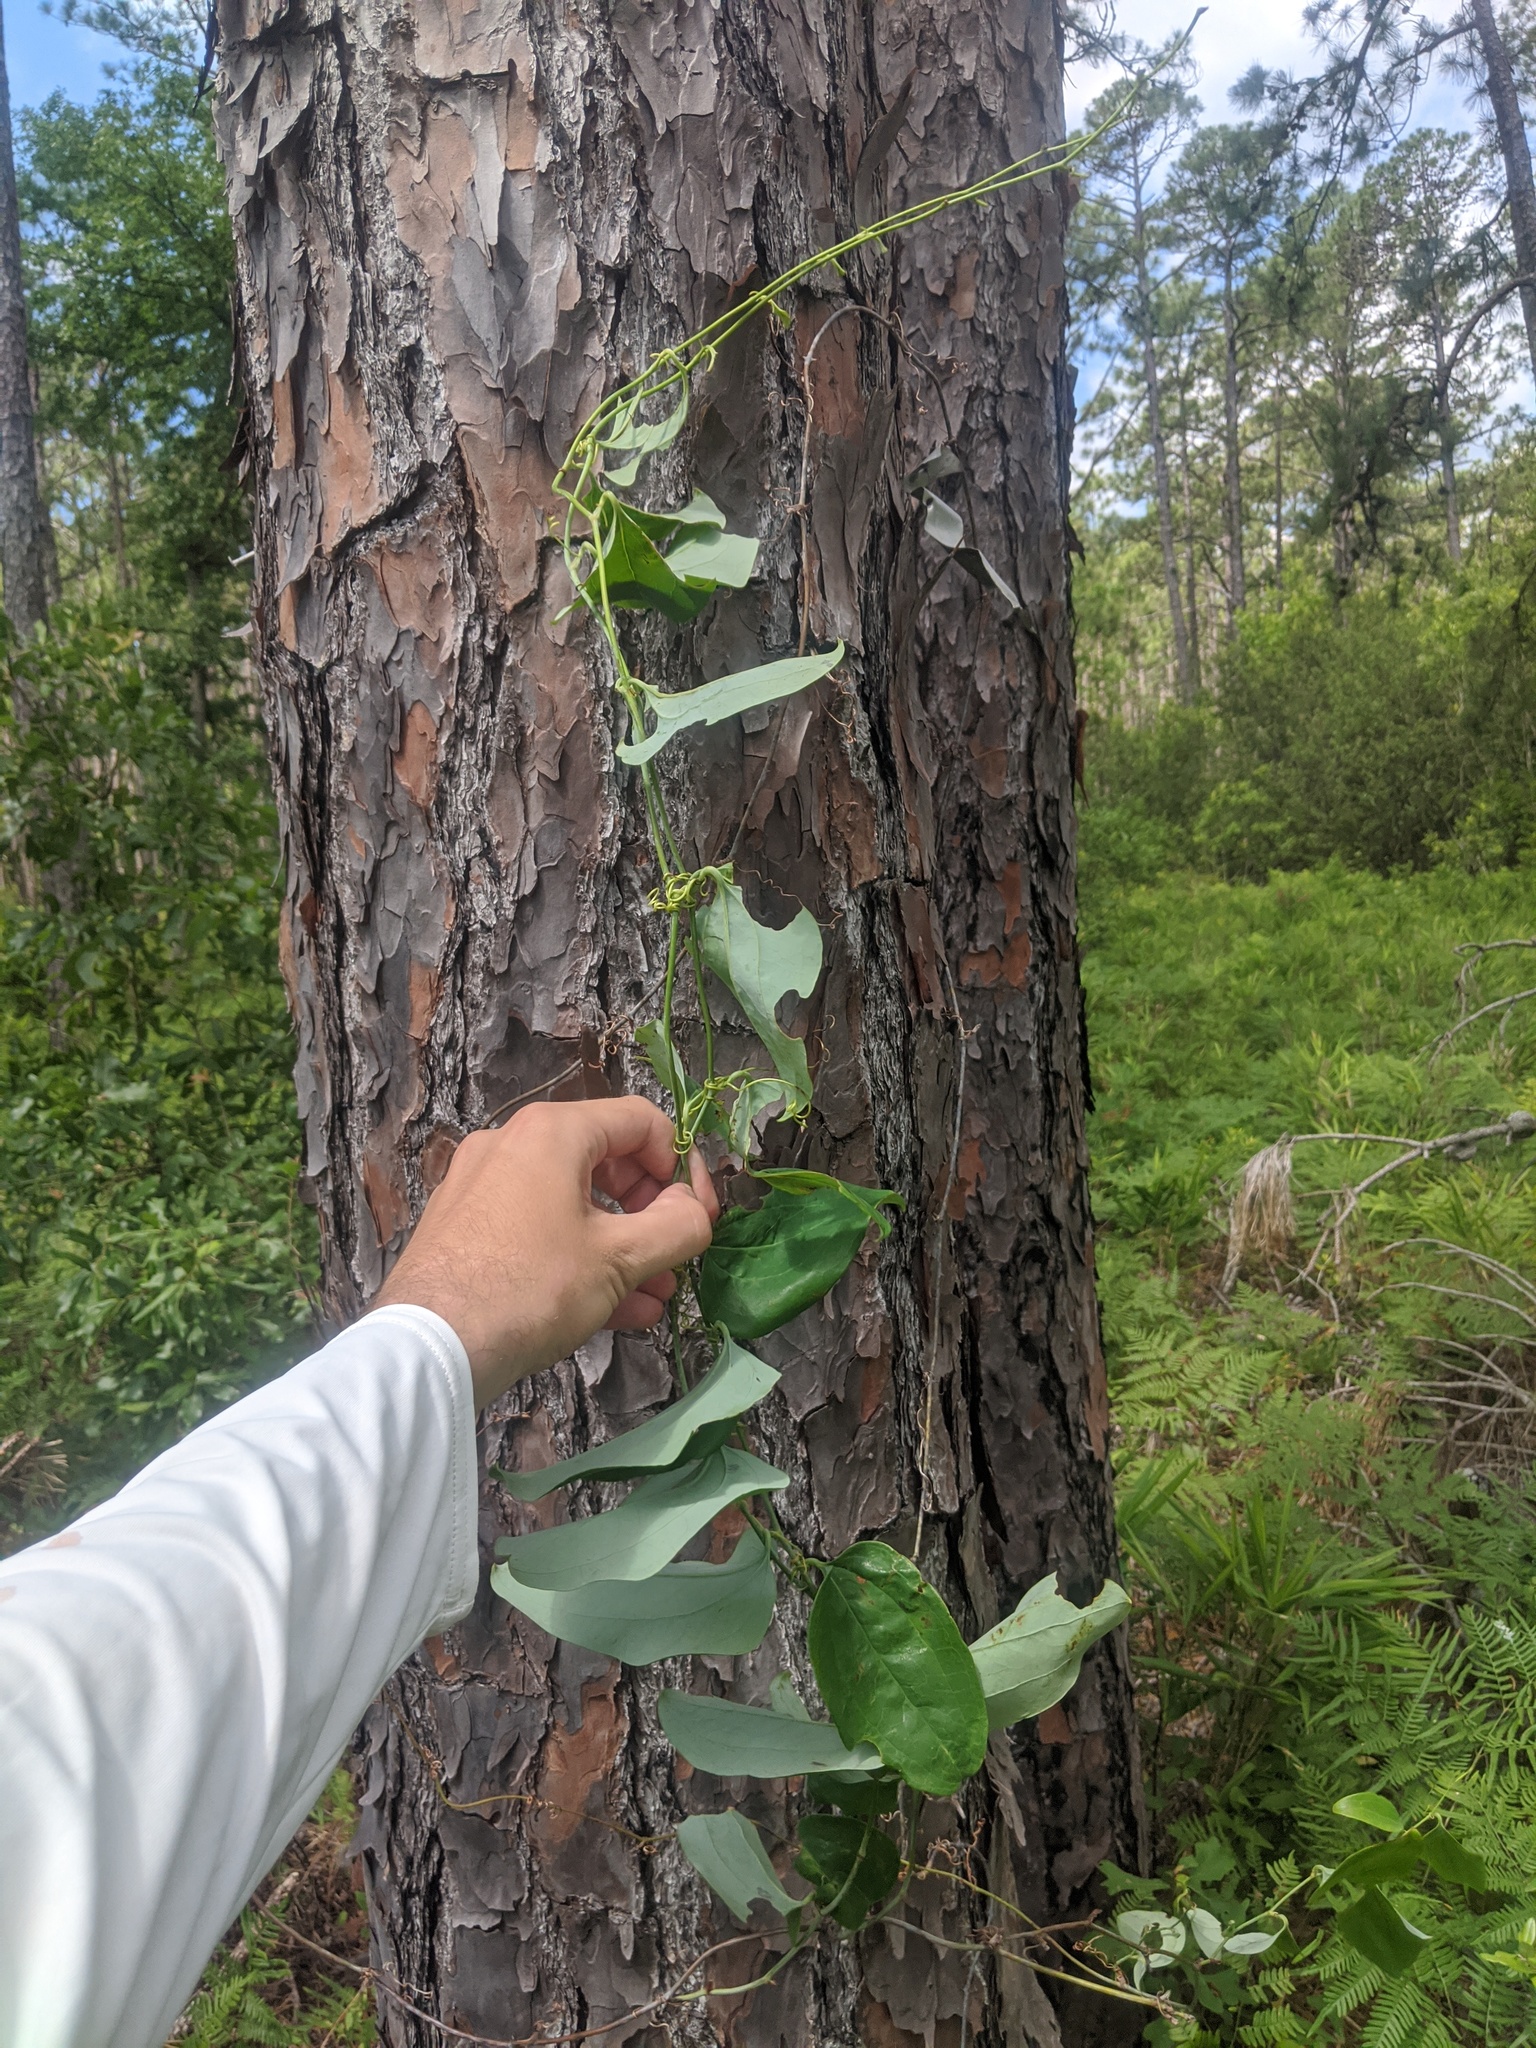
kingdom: Plantae
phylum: Tracheophyta
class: Liliopsida
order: Liliales
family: Smilacaceae
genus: Smilax
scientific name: Smilax glauca
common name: Cat greenbrier
